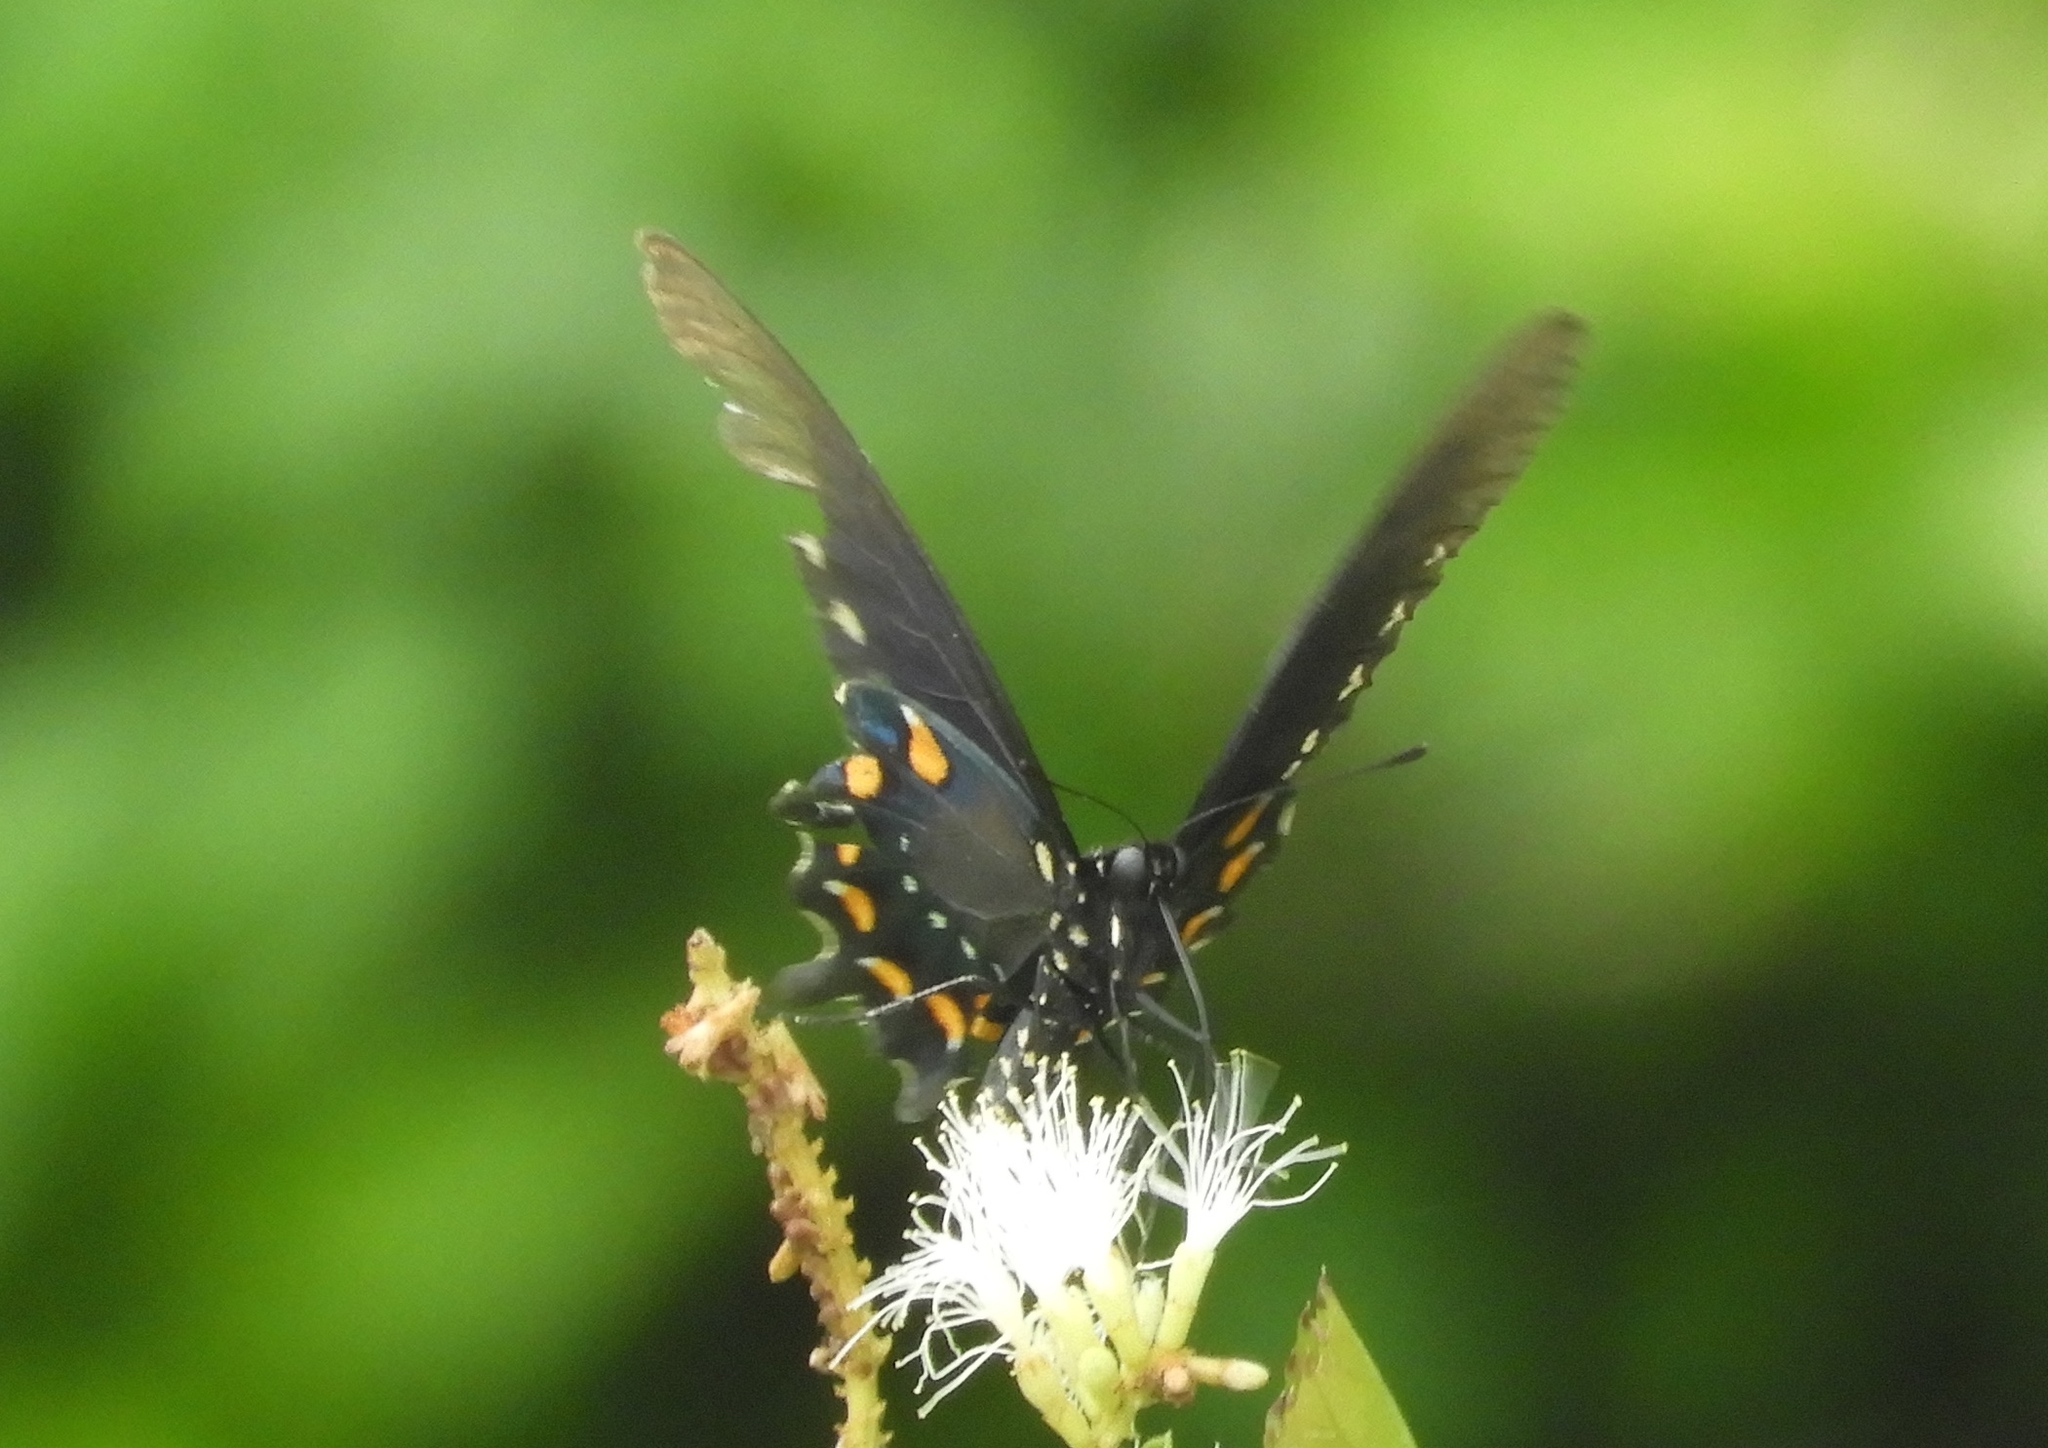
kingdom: Animalia
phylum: Arthropoda
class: Insecta
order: Lepidoptera
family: Papilionidae
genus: Battus
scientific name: Battus philenor
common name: Pipevine swallowtail
